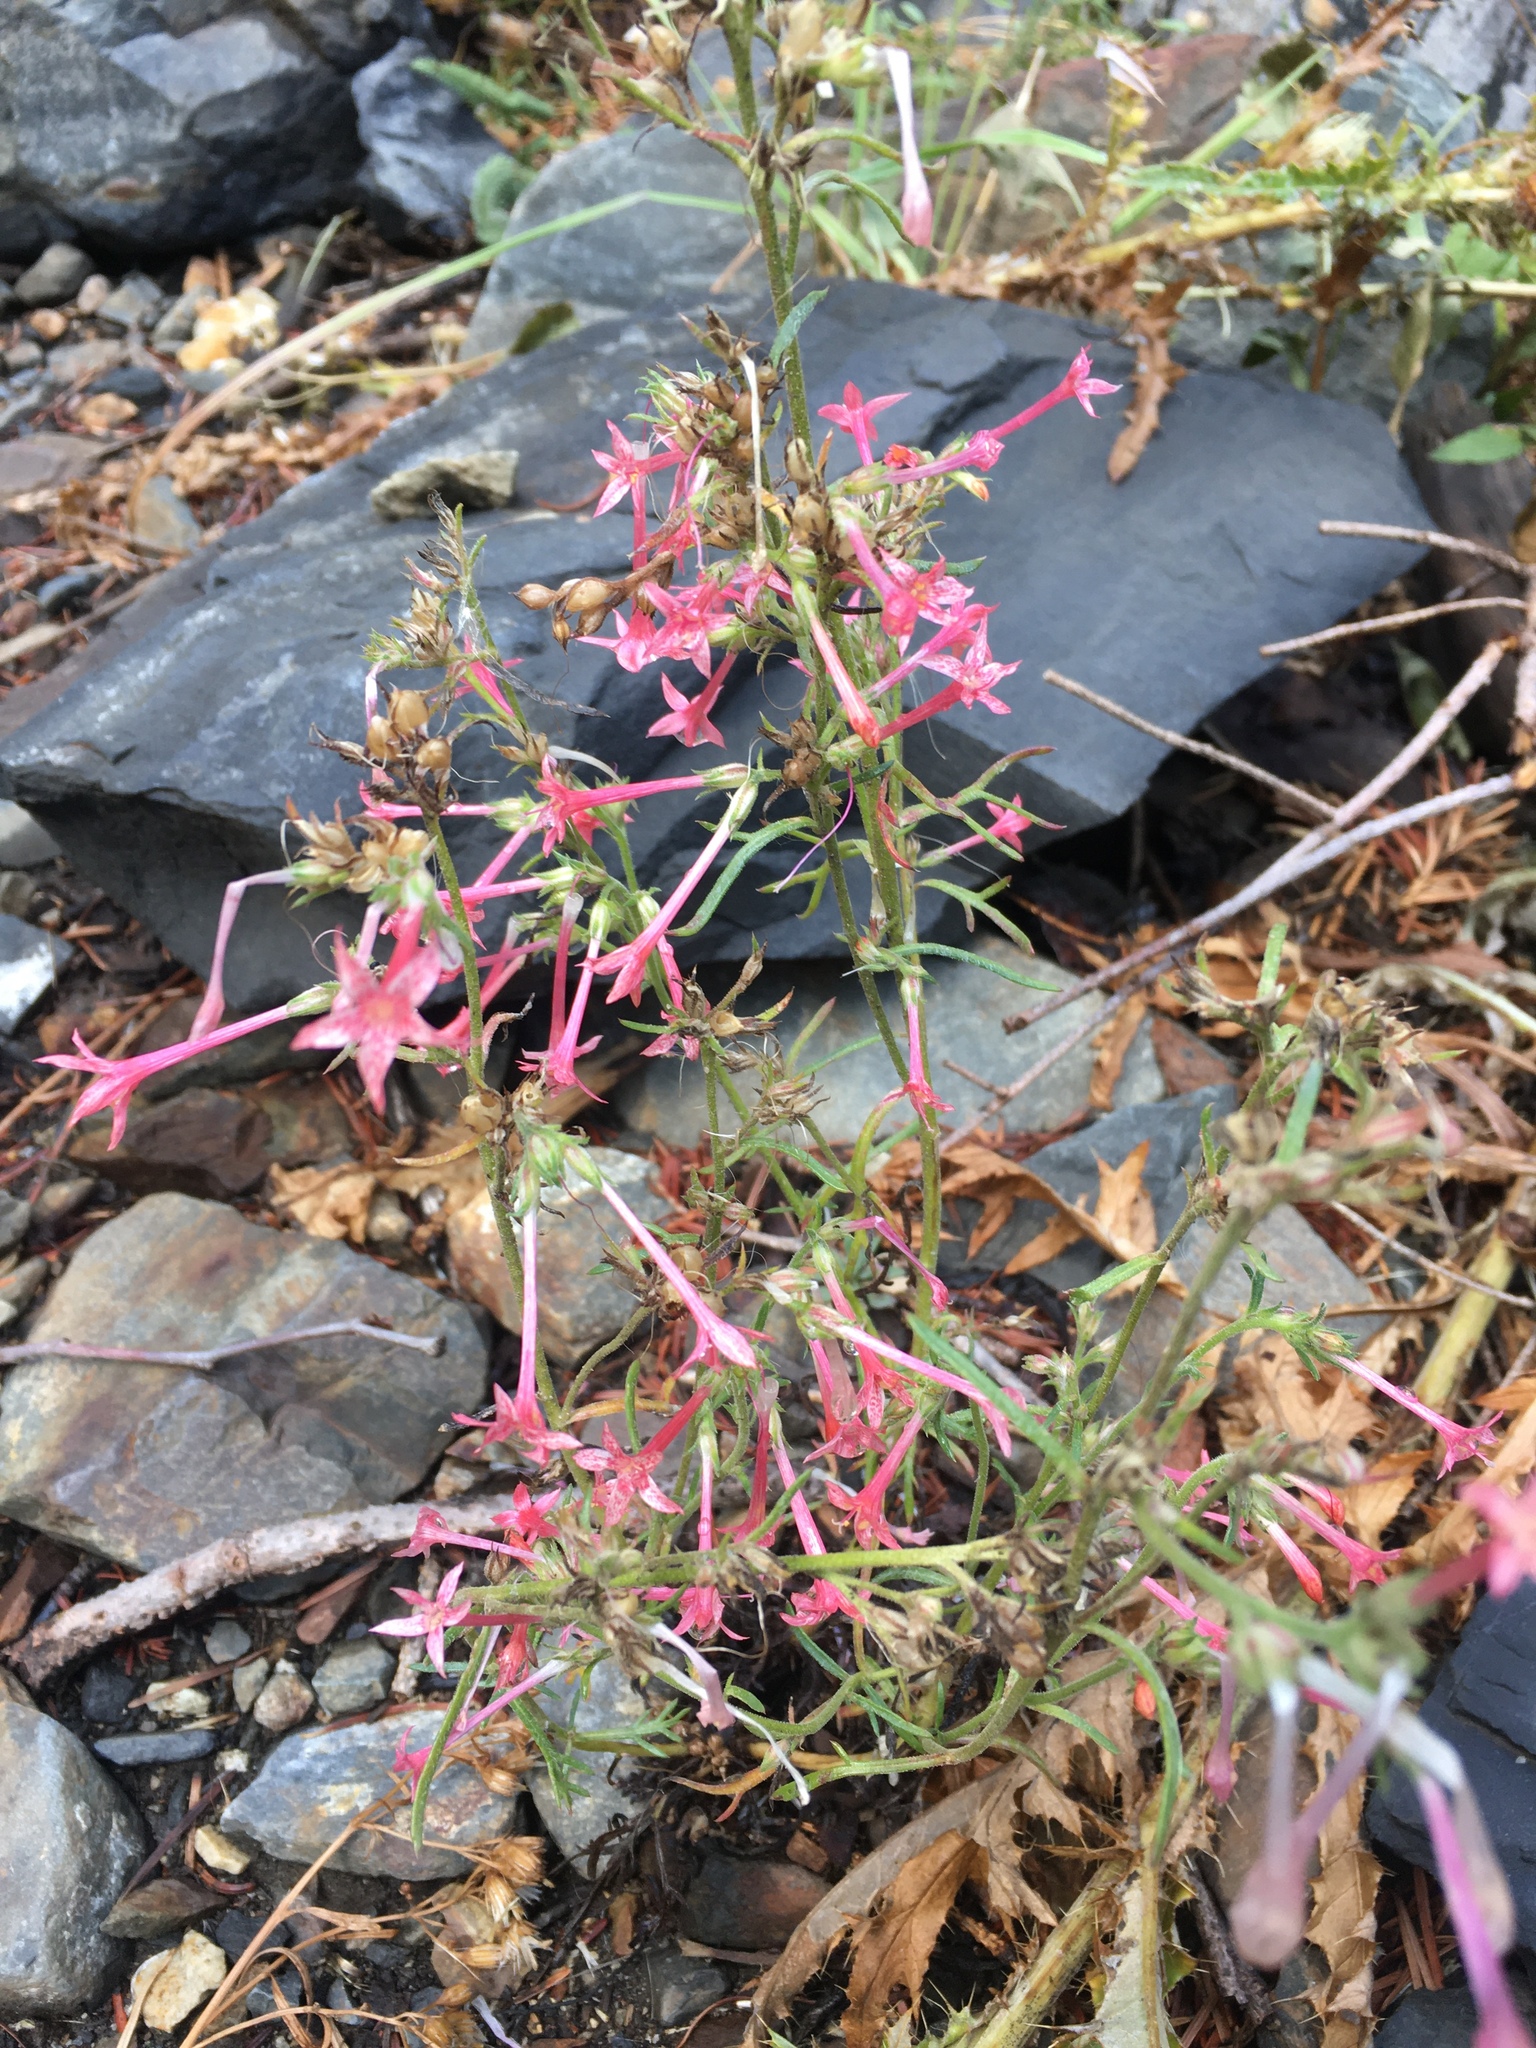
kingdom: Plantae
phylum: Tracheophyta
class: Magnoliopsida
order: Ericales
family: Polemoniaceae
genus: Ipomopsis
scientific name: Ipomopsis tenuituba
